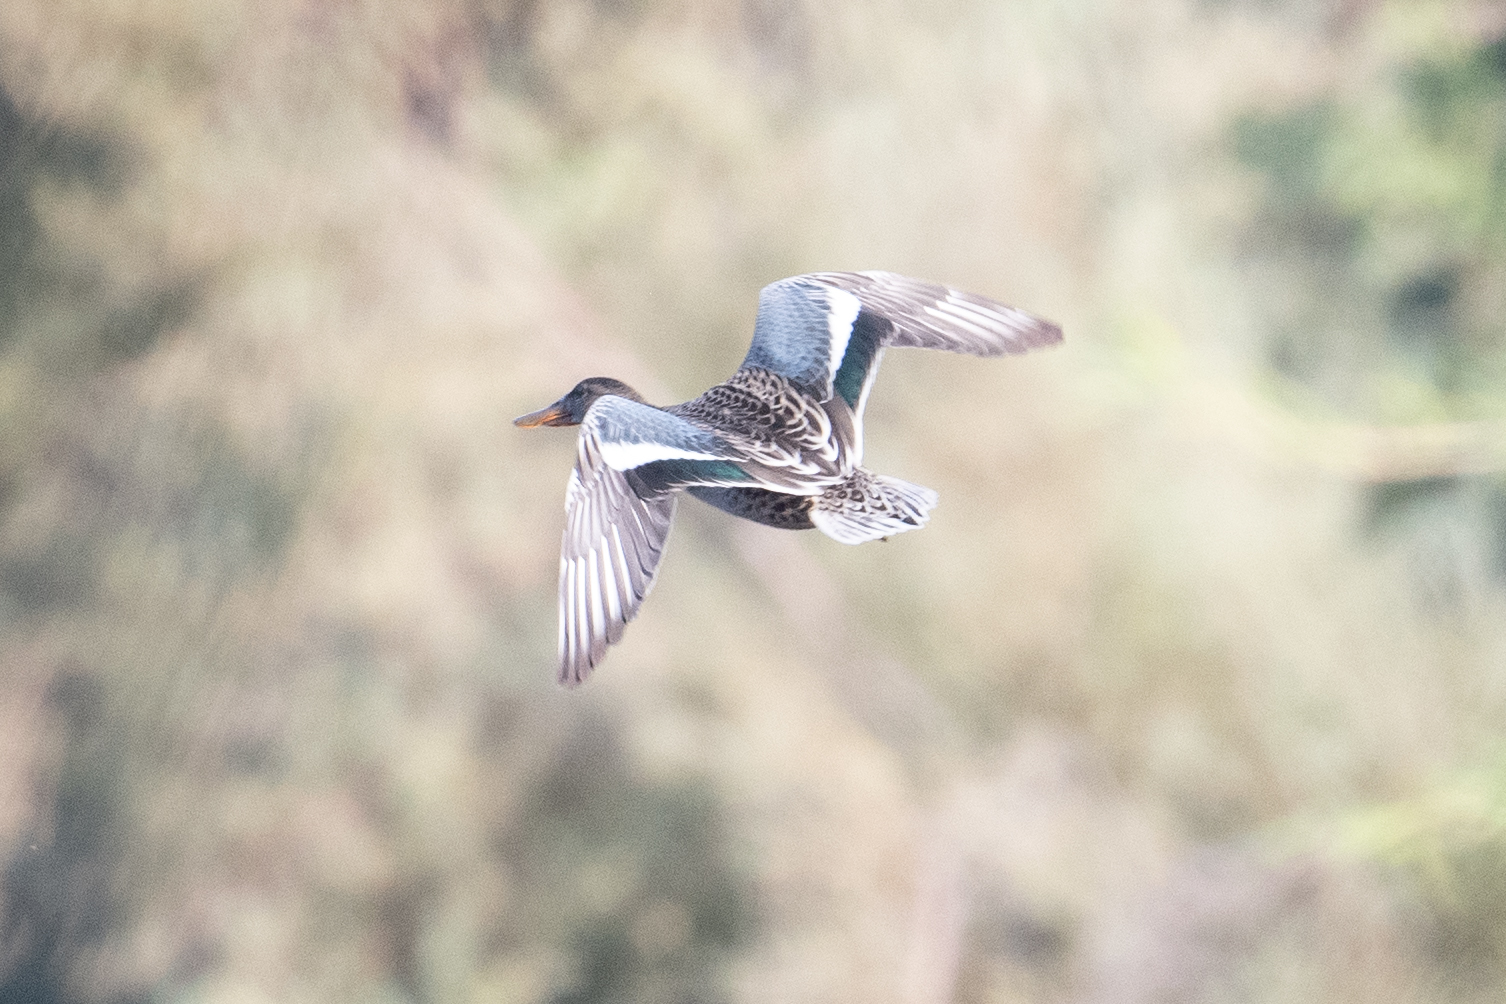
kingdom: Animalia
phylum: Chordata
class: Aves
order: Anseriformes
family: Anatidae
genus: Spatula
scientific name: Spatula clypeata
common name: Northern shoveler
